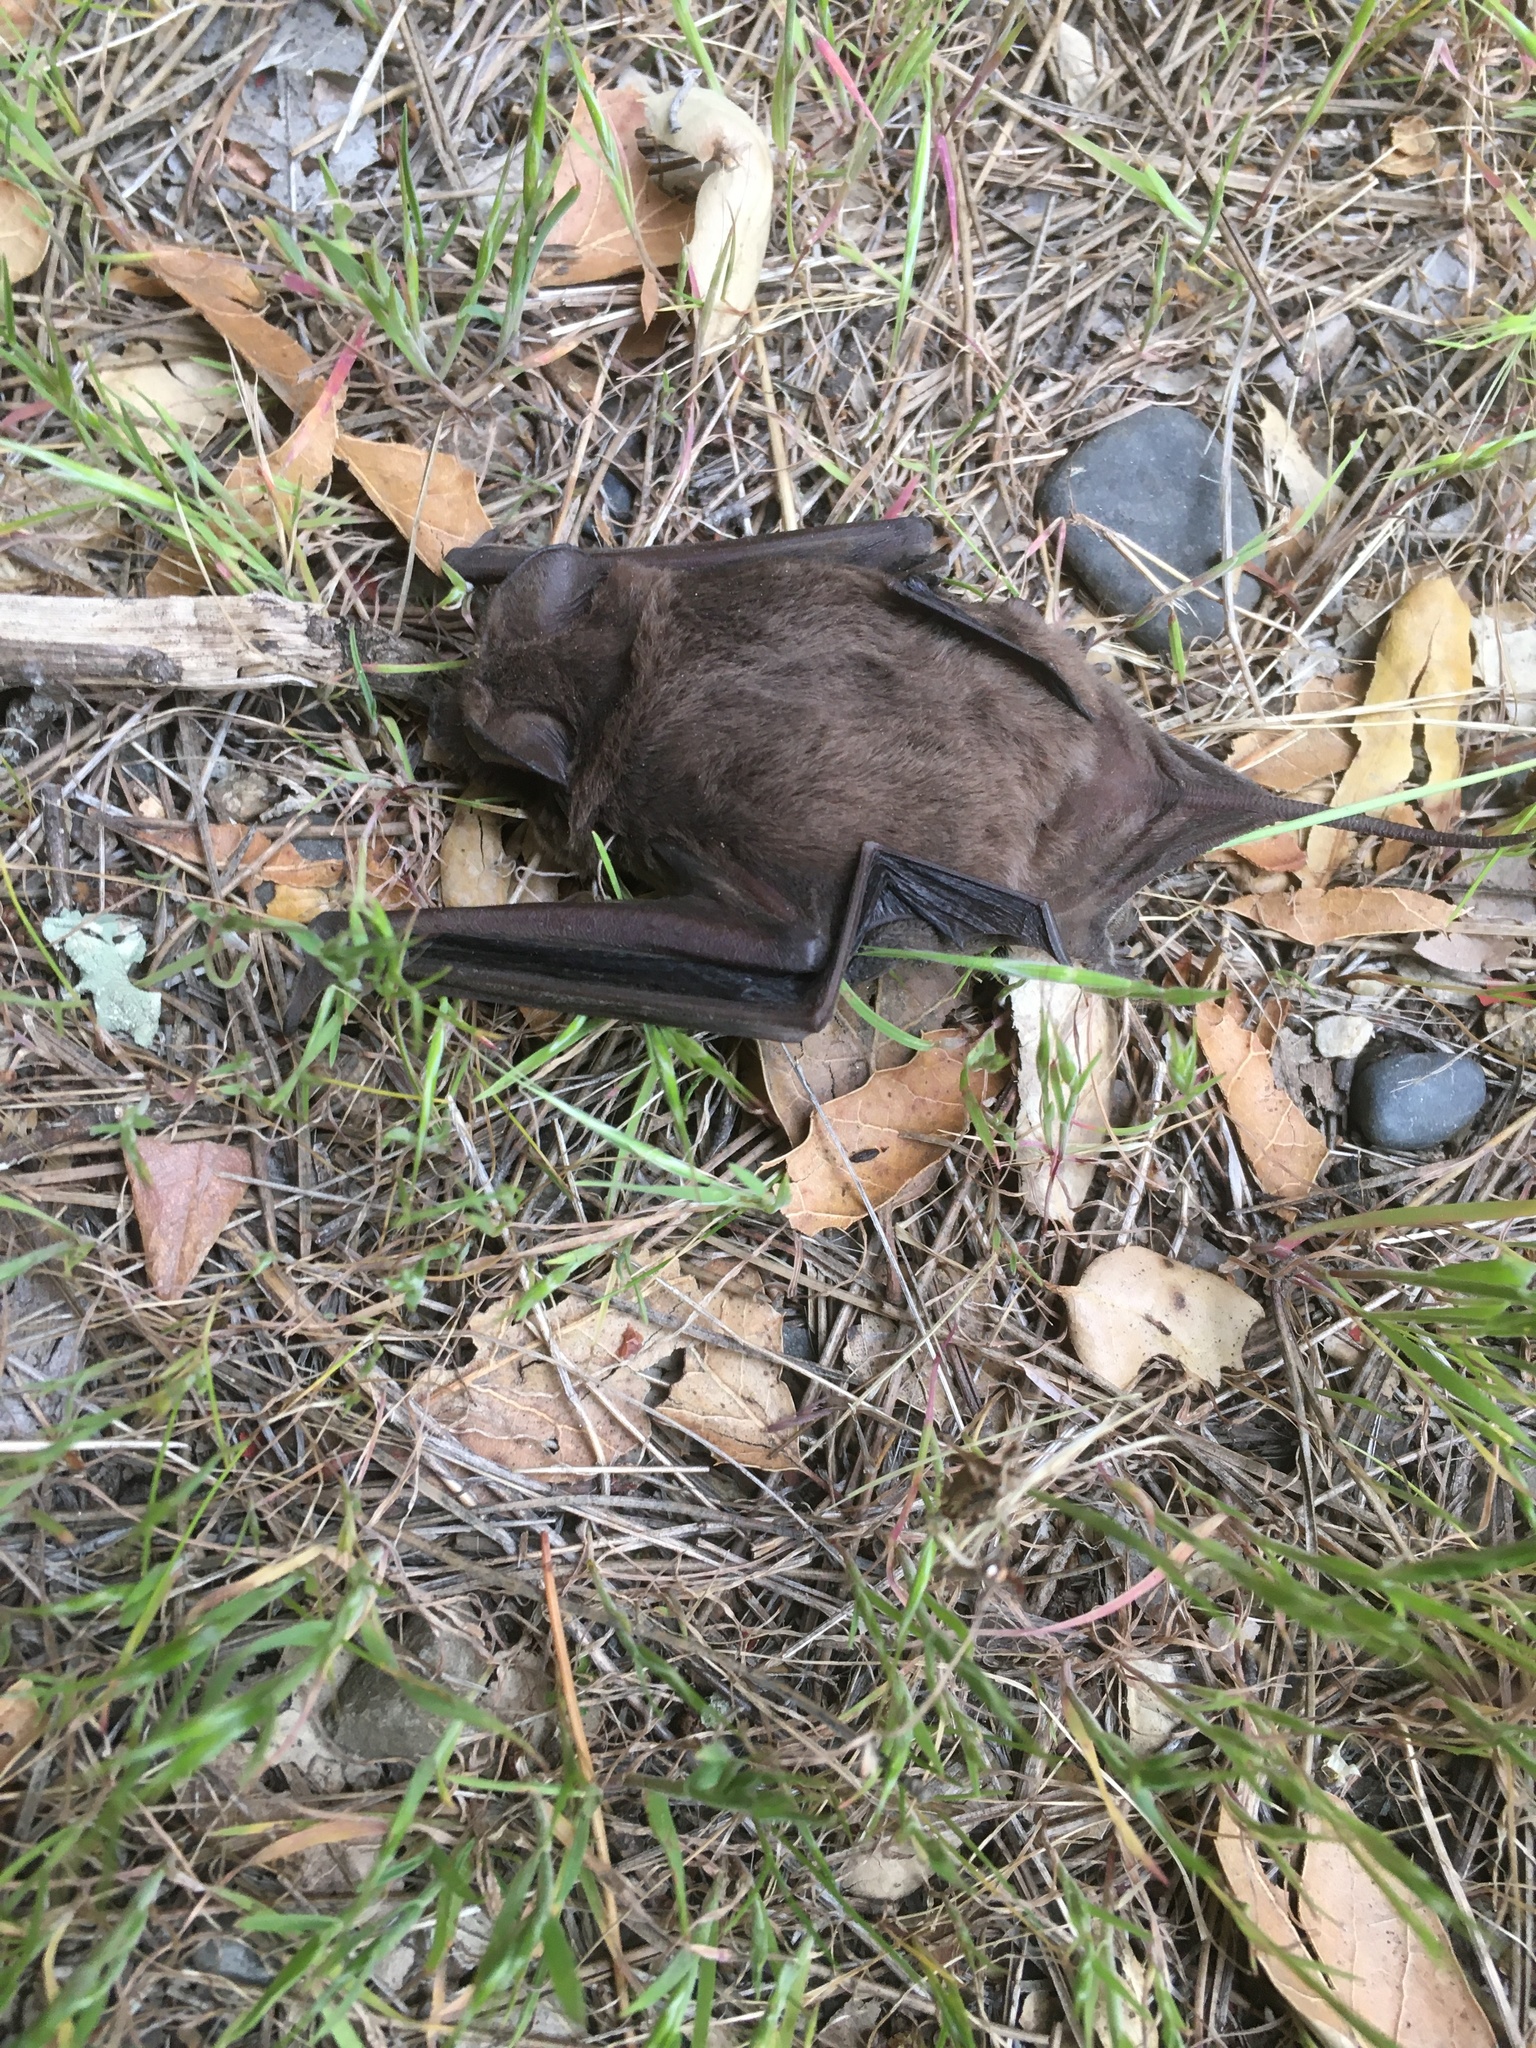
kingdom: Animalia
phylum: Chordata
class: Mammalia
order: Chiroptera
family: Molossidae
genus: Tadarida
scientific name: Tadarida brasiliensis
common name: Mexican free-tailed bat
